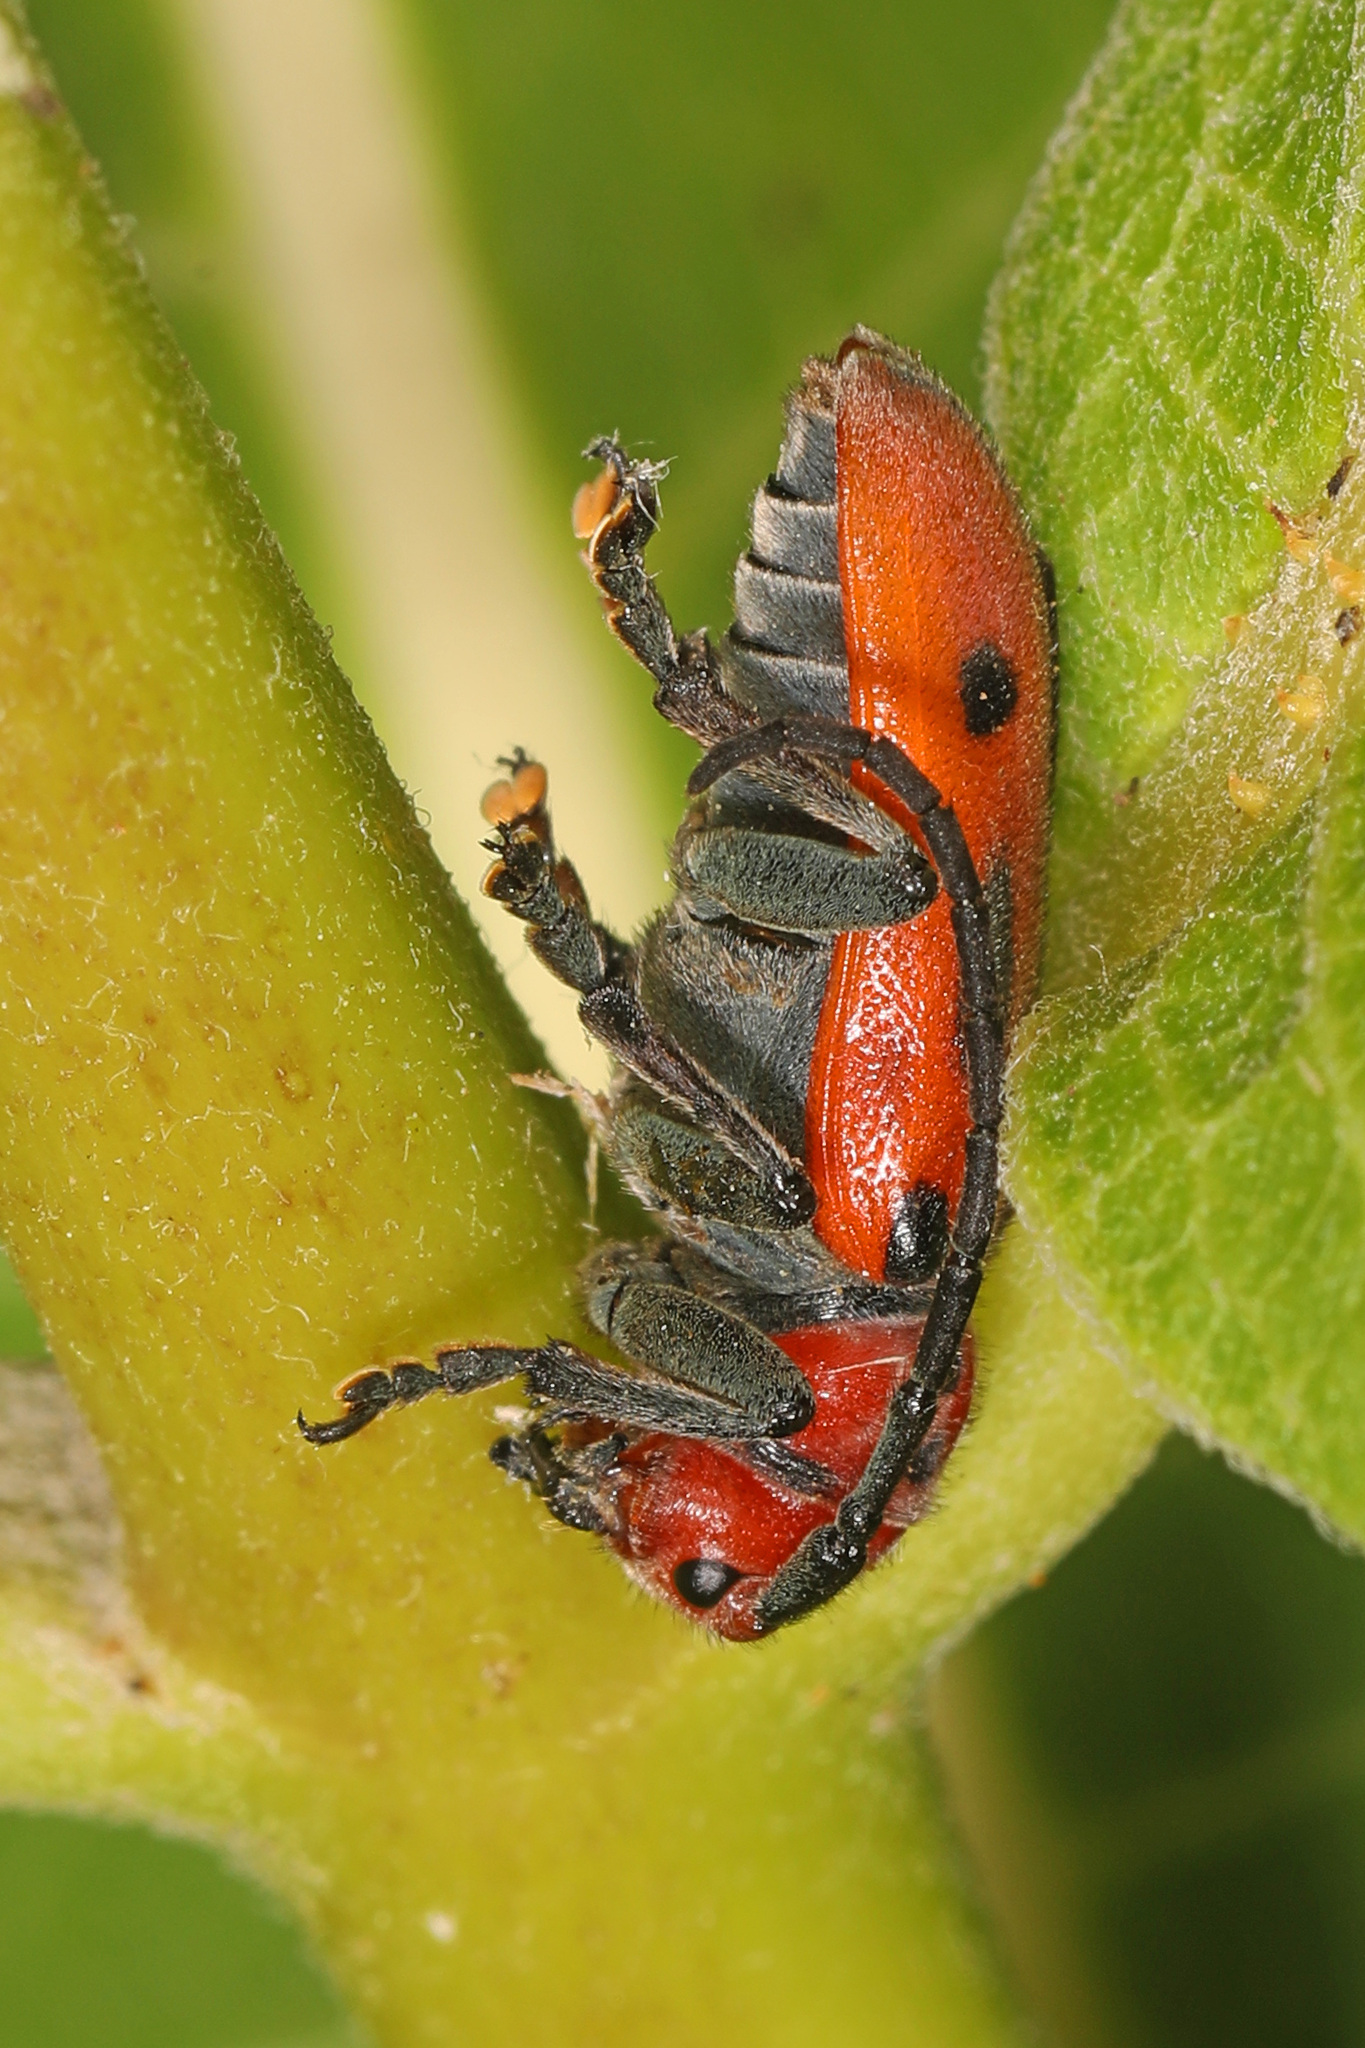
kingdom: Animalia
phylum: Arthropoda
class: Insecta
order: Coleoptera
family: Cerambycidae
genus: Tetraopes
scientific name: Tetraopes tetrophthalmus
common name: Red milkweed beetle
